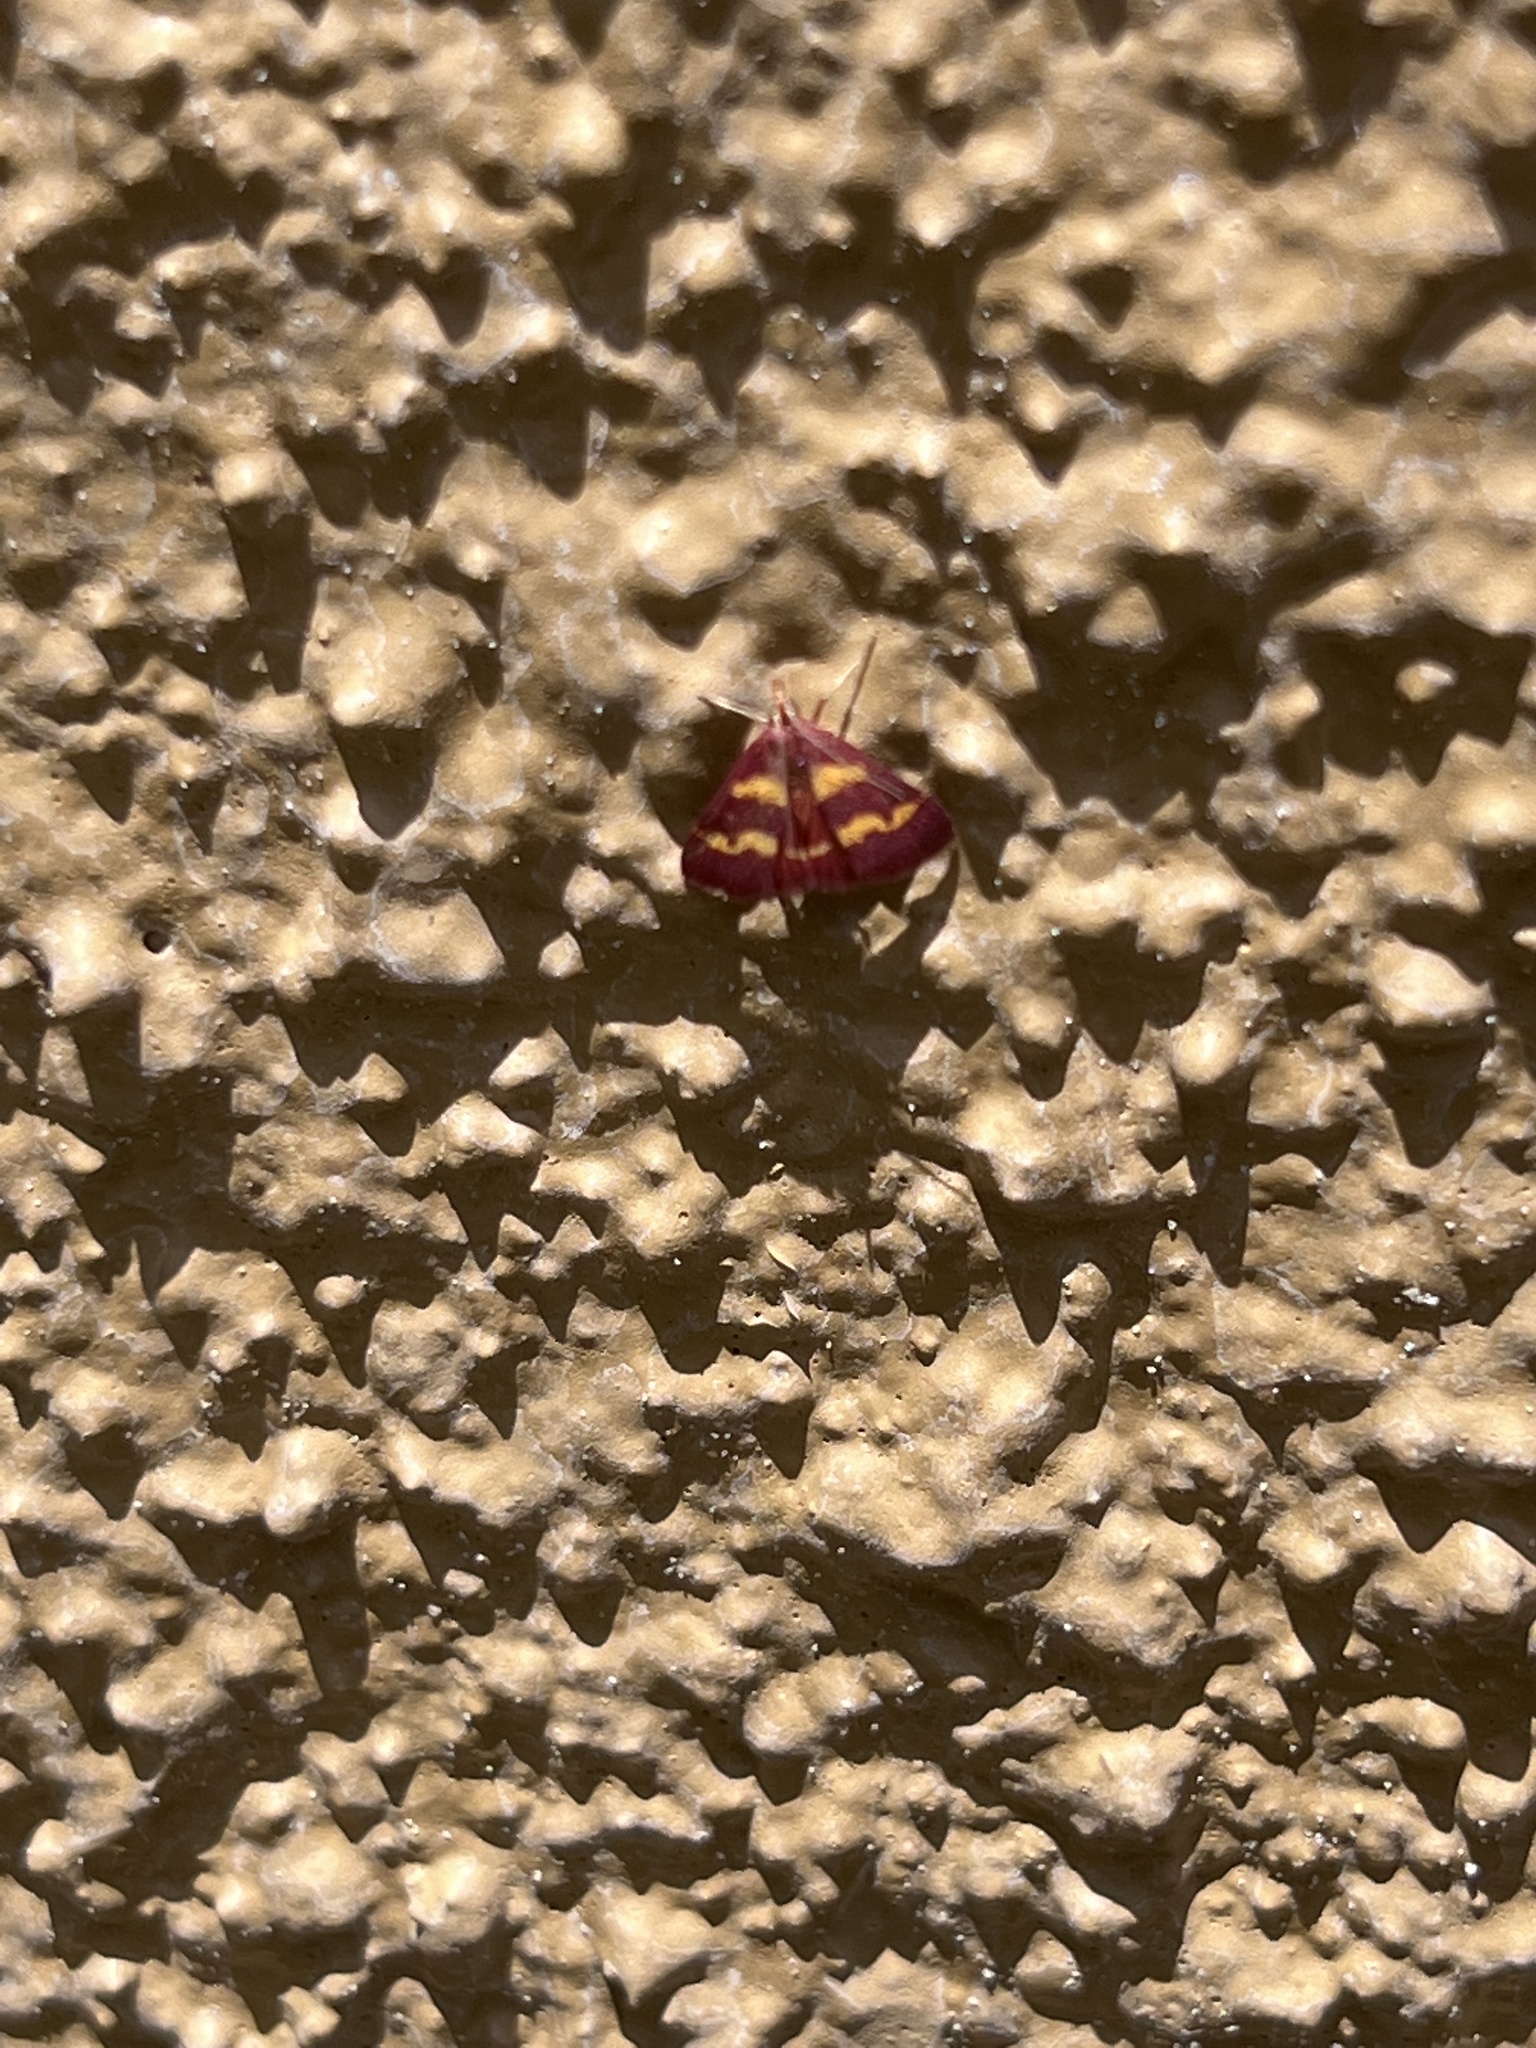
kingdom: Animalia
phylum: Arthropoda
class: Insecta
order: Lepidoptera
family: Crambidae
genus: Pyrausta
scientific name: Pyrausta tyralis
